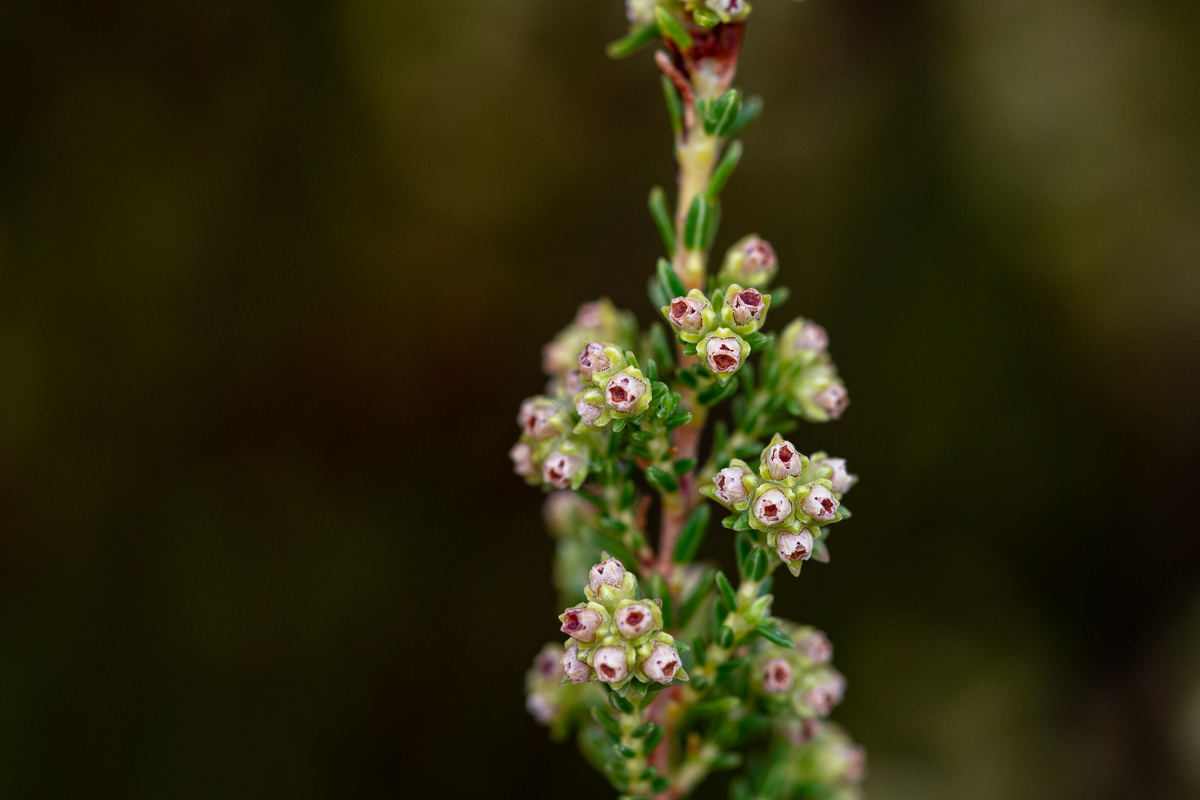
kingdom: Plantae
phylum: Tracheophyta
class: Magnoliopsida
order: Ericales
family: Ericaceae
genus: Erica
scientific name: Erica serrata
